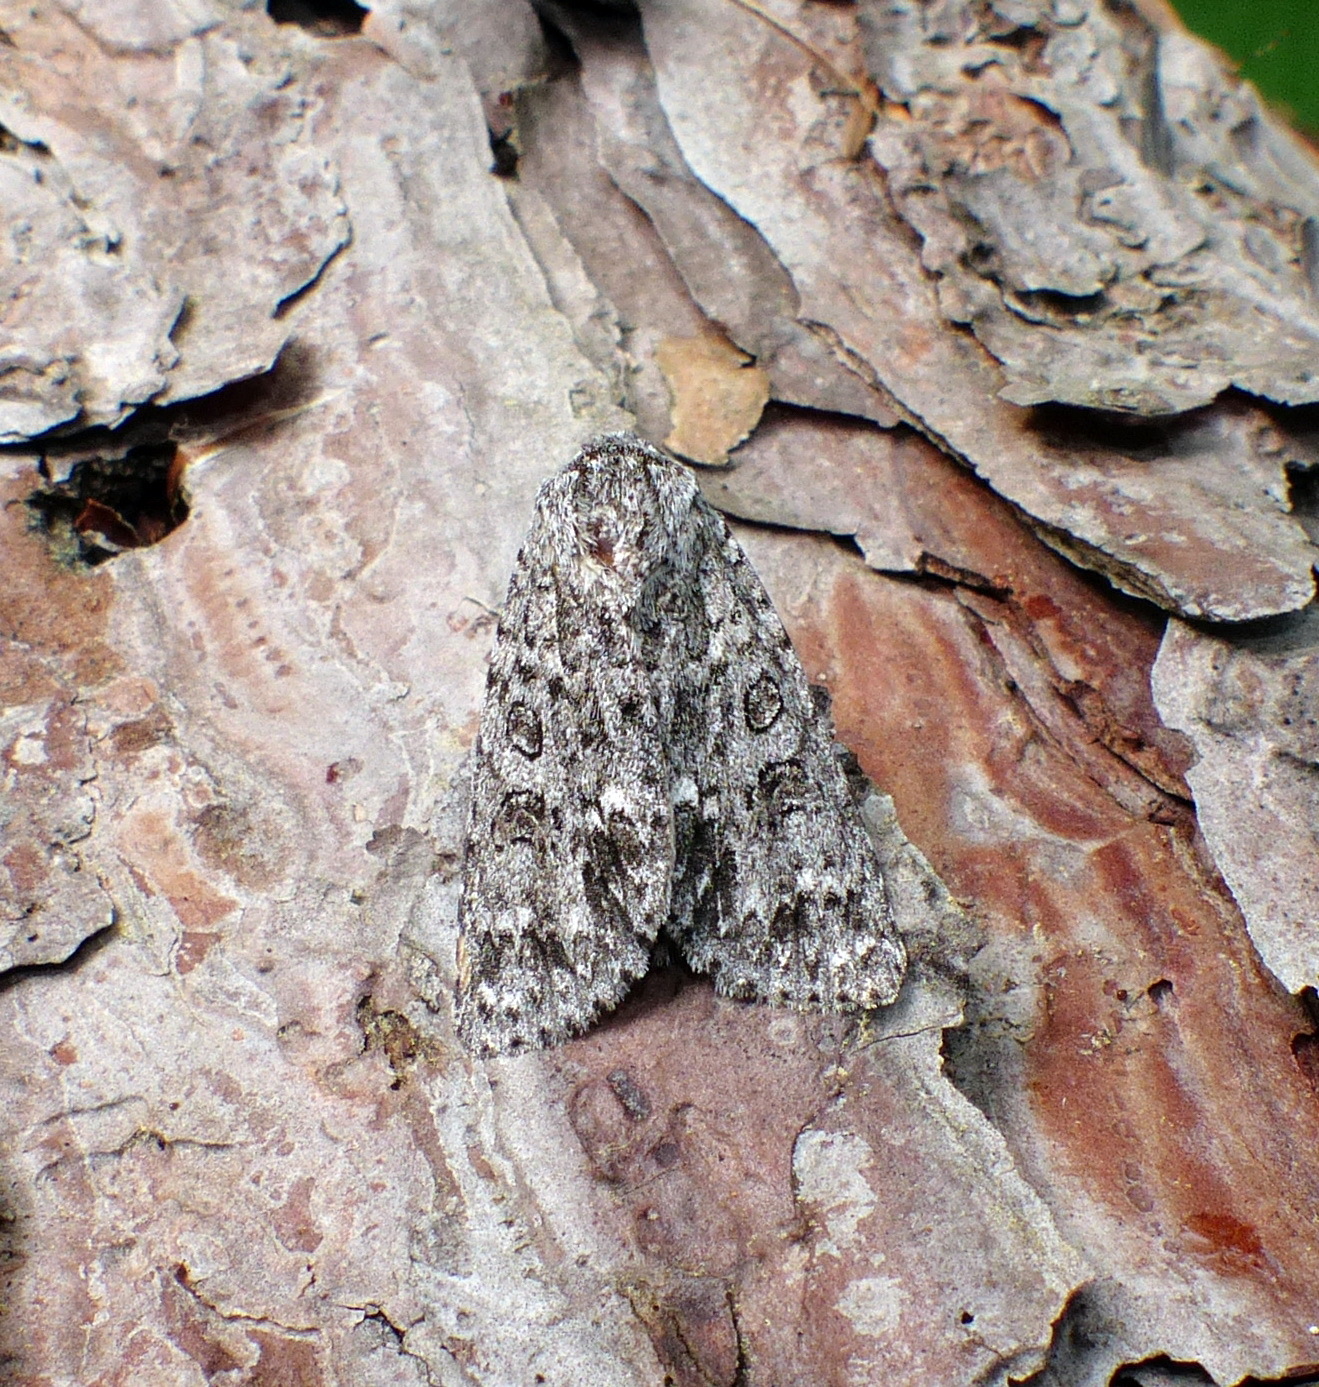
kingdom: Animalia
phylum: Arthropoda
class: Insecta
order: Lepidoptera
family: Noctuidae
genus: Acronicta
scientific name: Acronicta impleta
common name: Powdered dagger
